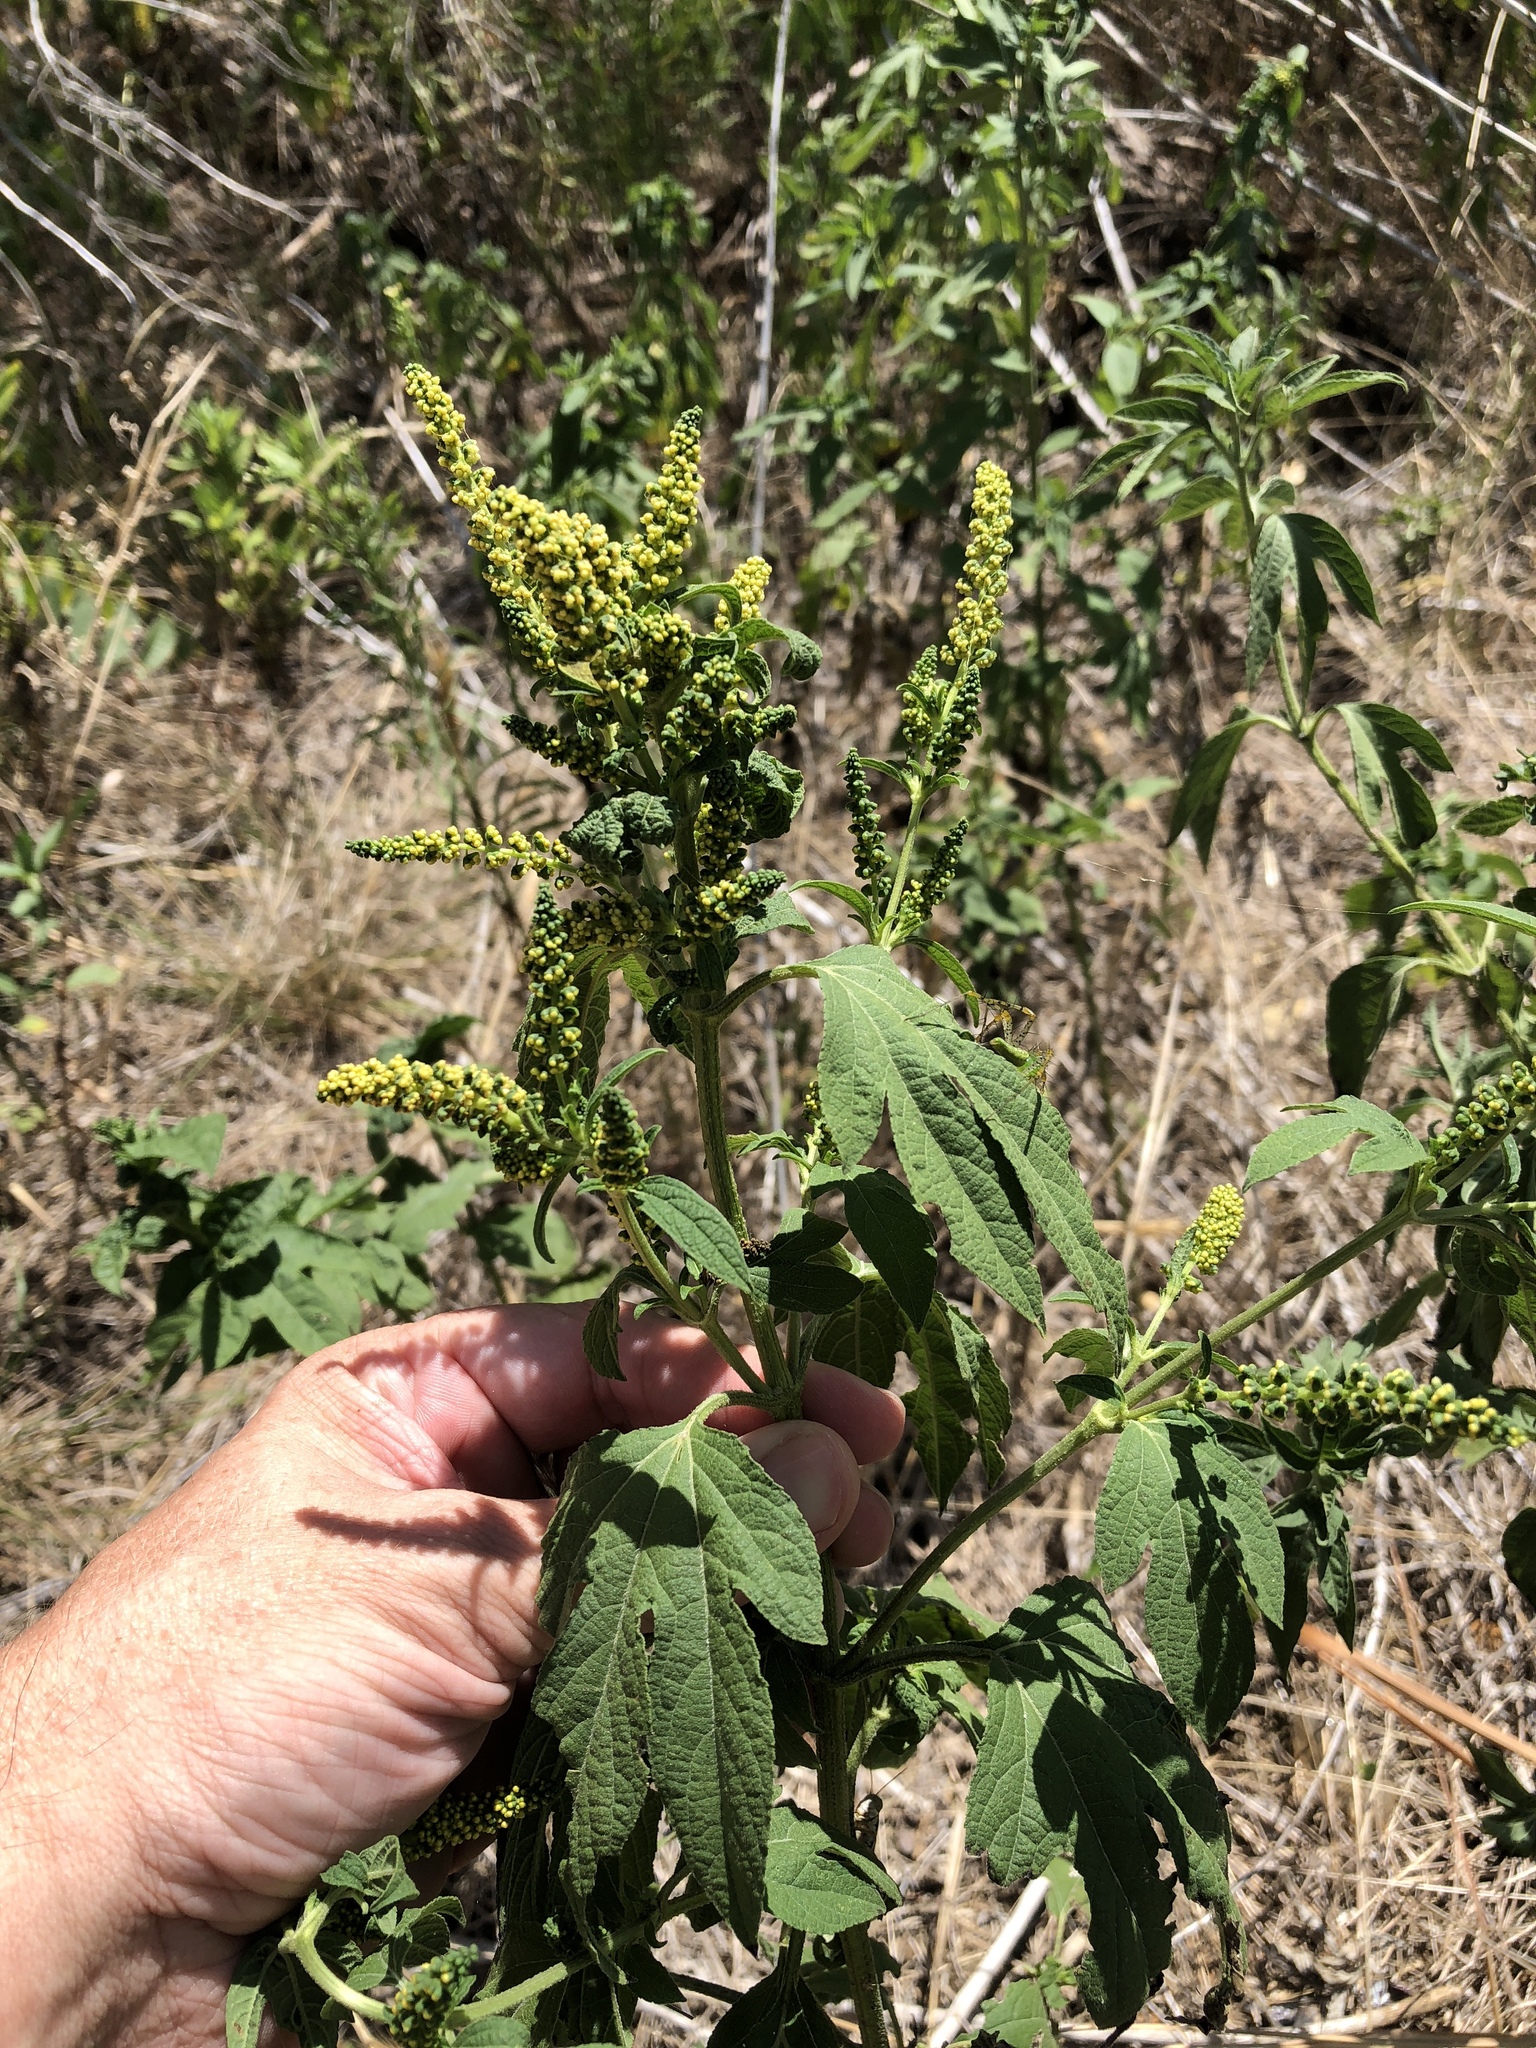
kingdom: Plantae
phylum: Tracheophyta
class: Magnoliopsida
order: Asterales
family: Asteraceae
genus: Ambrosia
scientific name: Ambrosia trifida
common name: Giant ragweed
